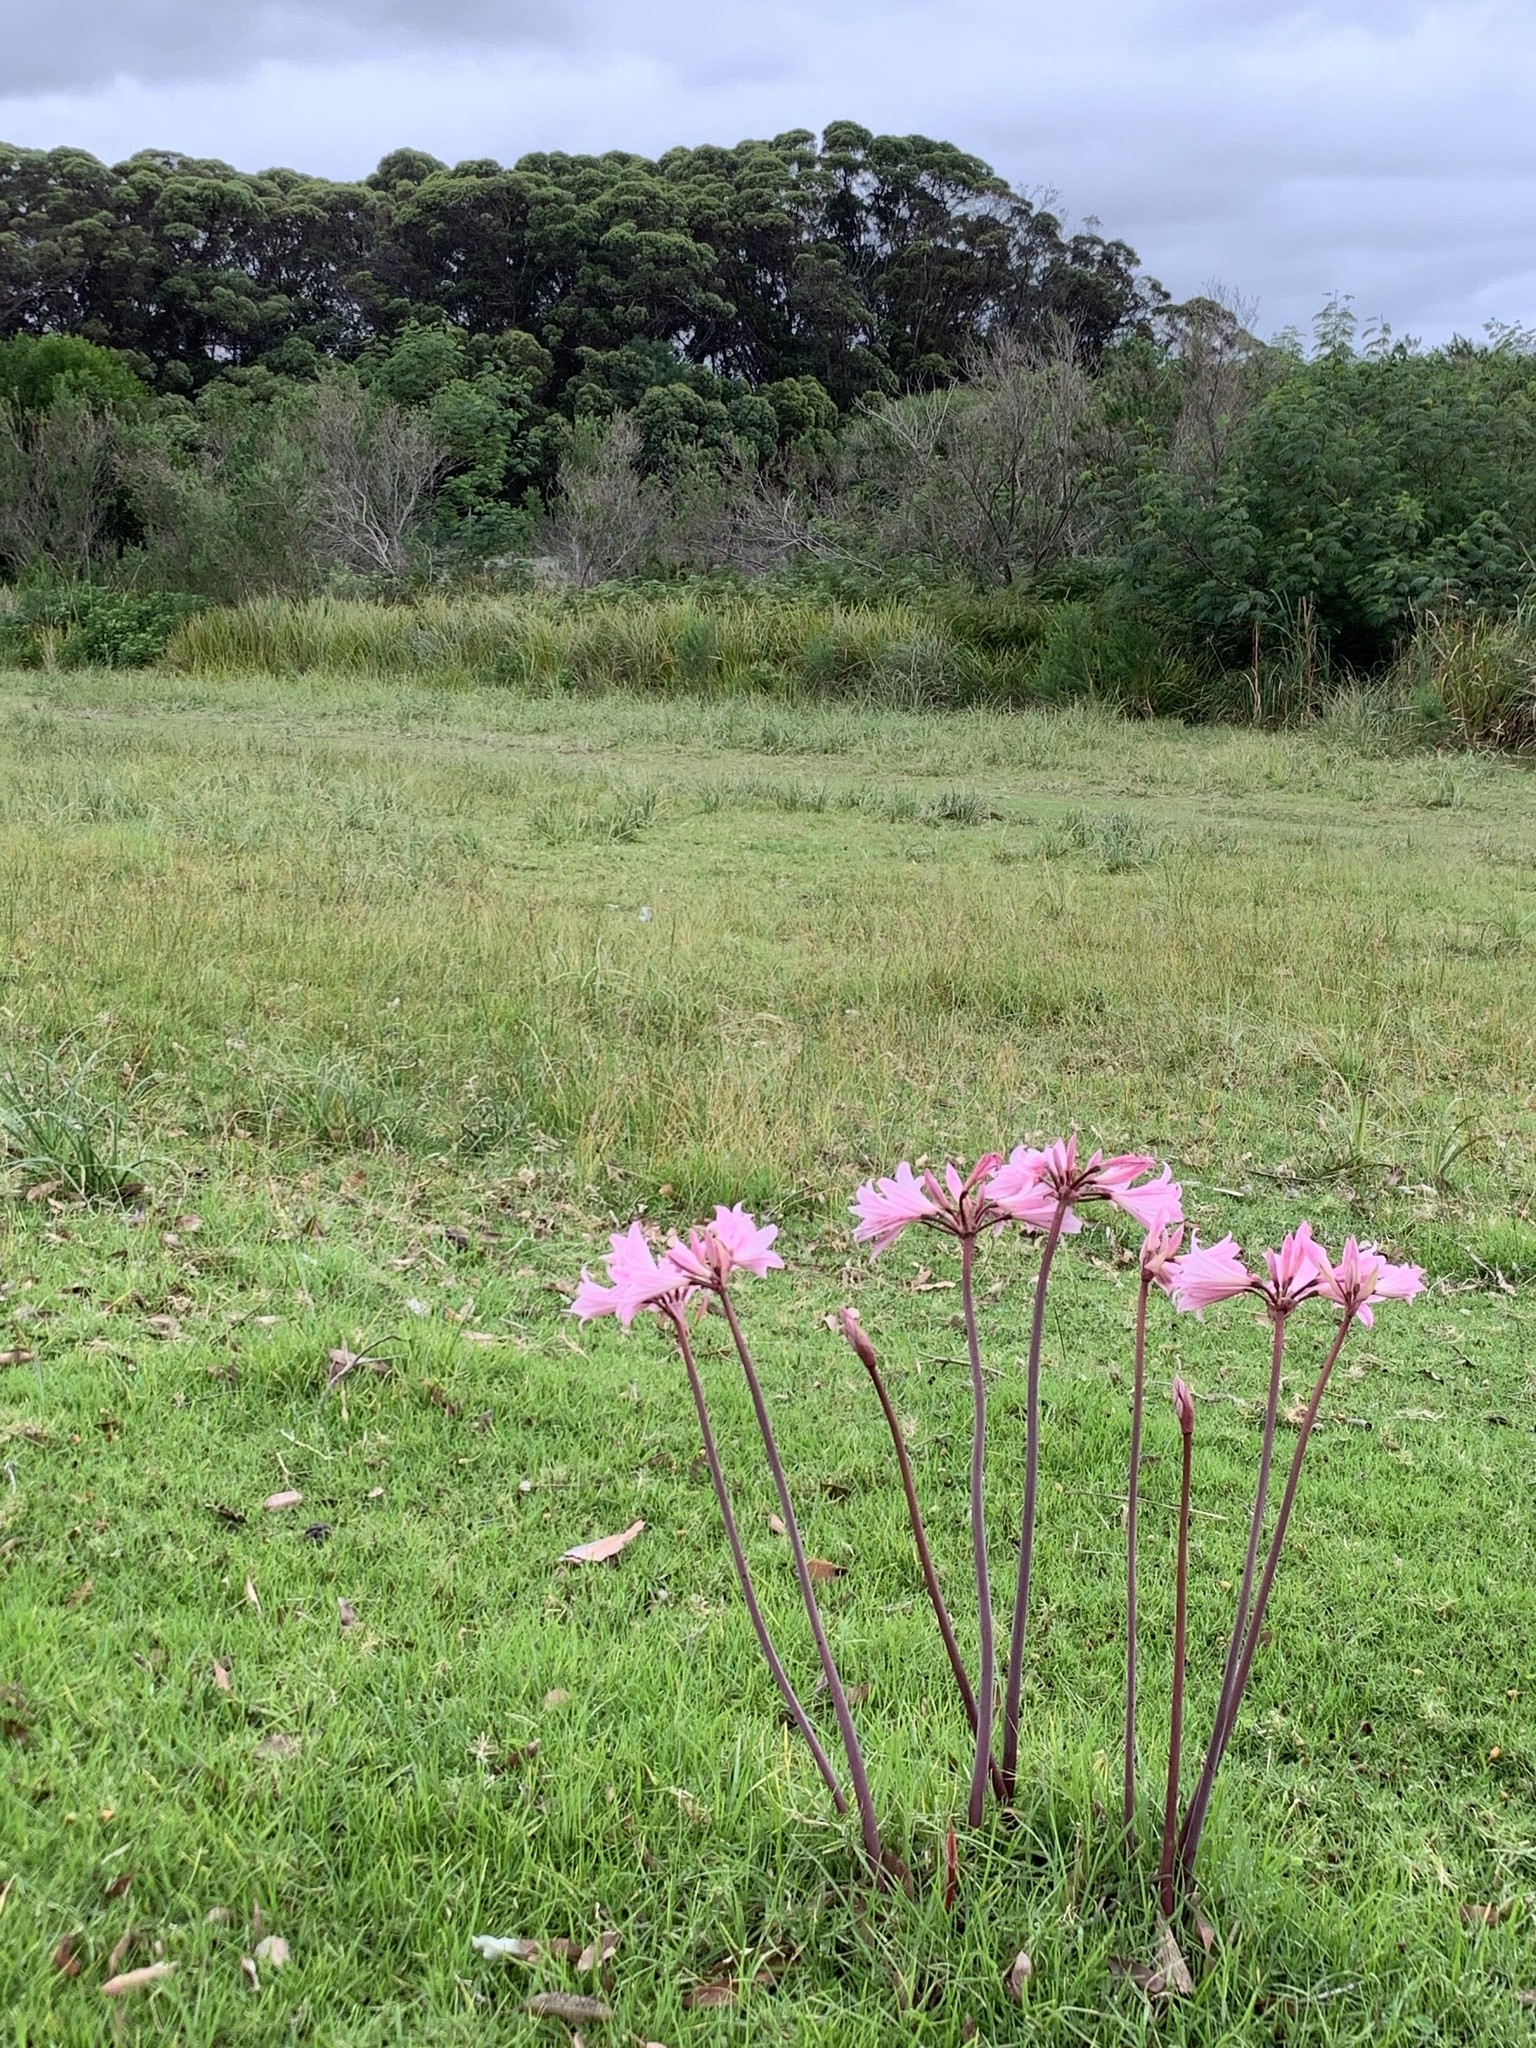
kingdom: Plantae
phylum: Tracheophyta
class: Liliopsida
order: Asparagales
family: Amaryllidaceae
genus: Amaryllis
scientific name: Amaryllis belladonna
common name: Jersey lily
